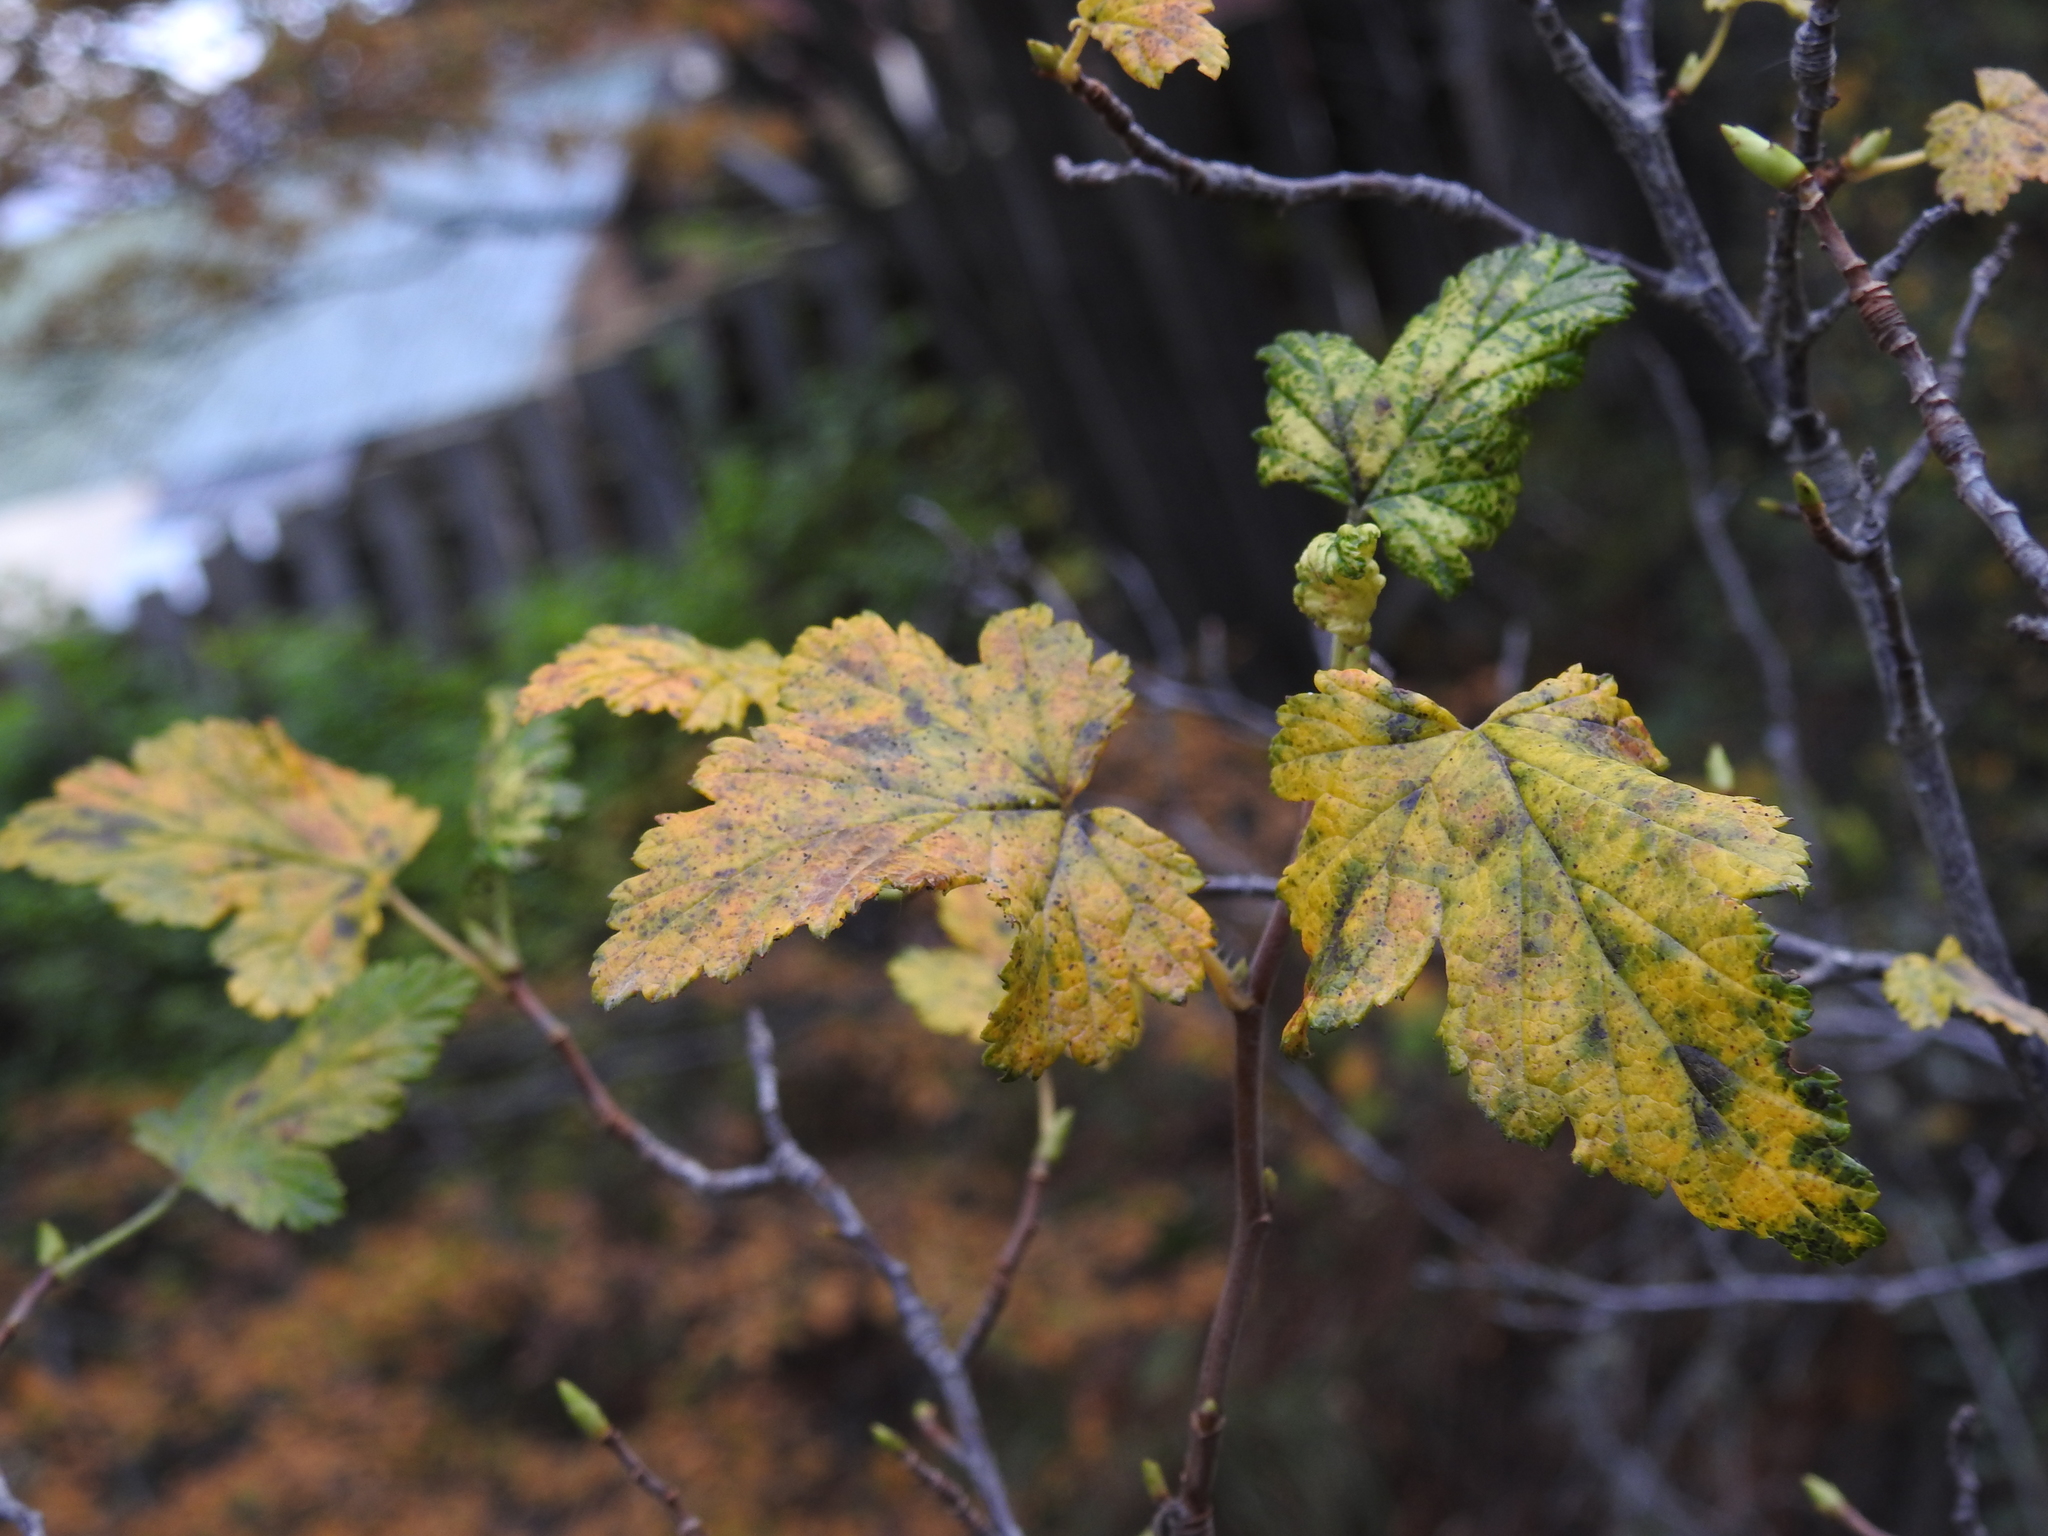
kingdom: Plantae
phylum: Tracheophyta
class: Magnoliopsida
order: Saxifragales
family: Grossulariaceae
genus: Ribes
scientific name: Ribes magellanicum
